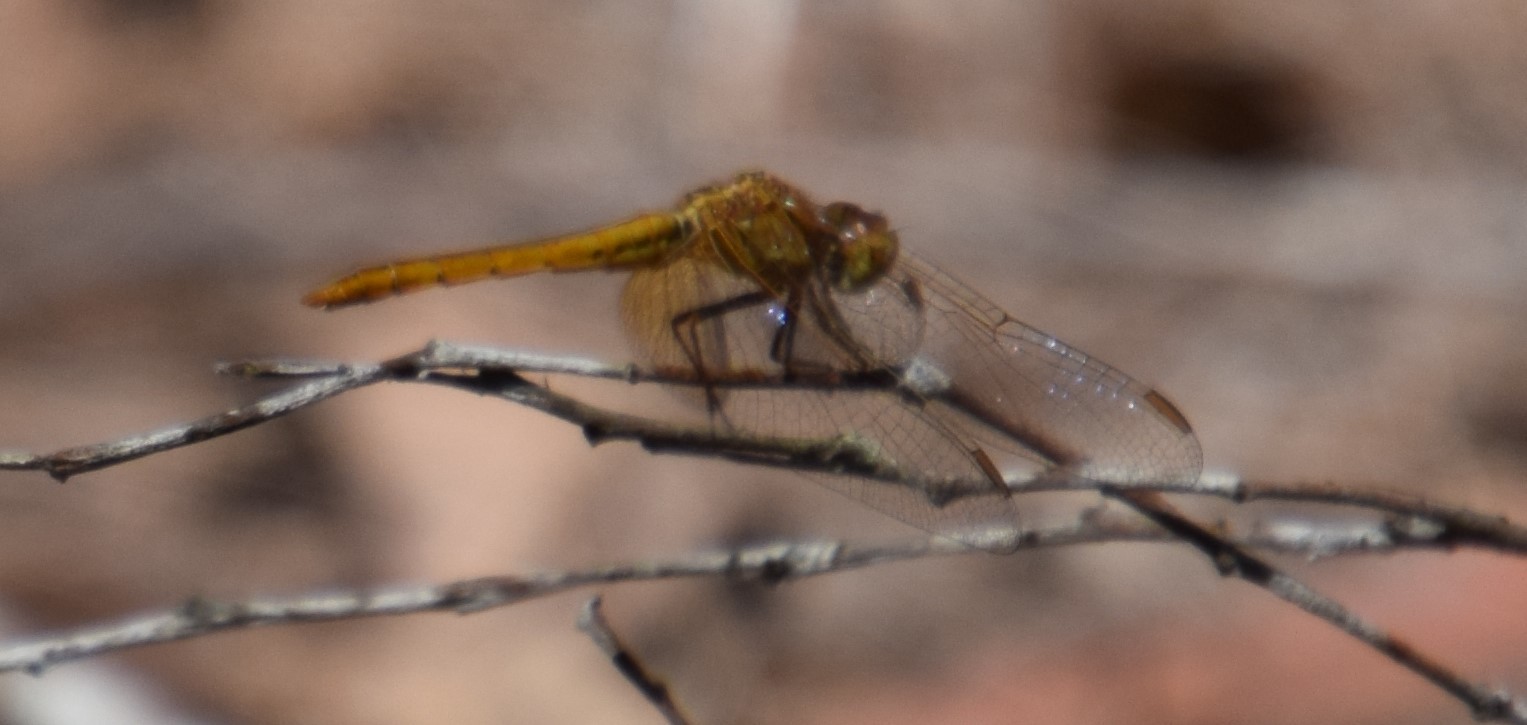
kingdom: Animalia
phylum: Arthropoda
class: Insecta
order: Odonata
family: Libellulidae
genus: Diplacodes
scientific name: Diplacodes haematodes
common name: Scarlet percher
